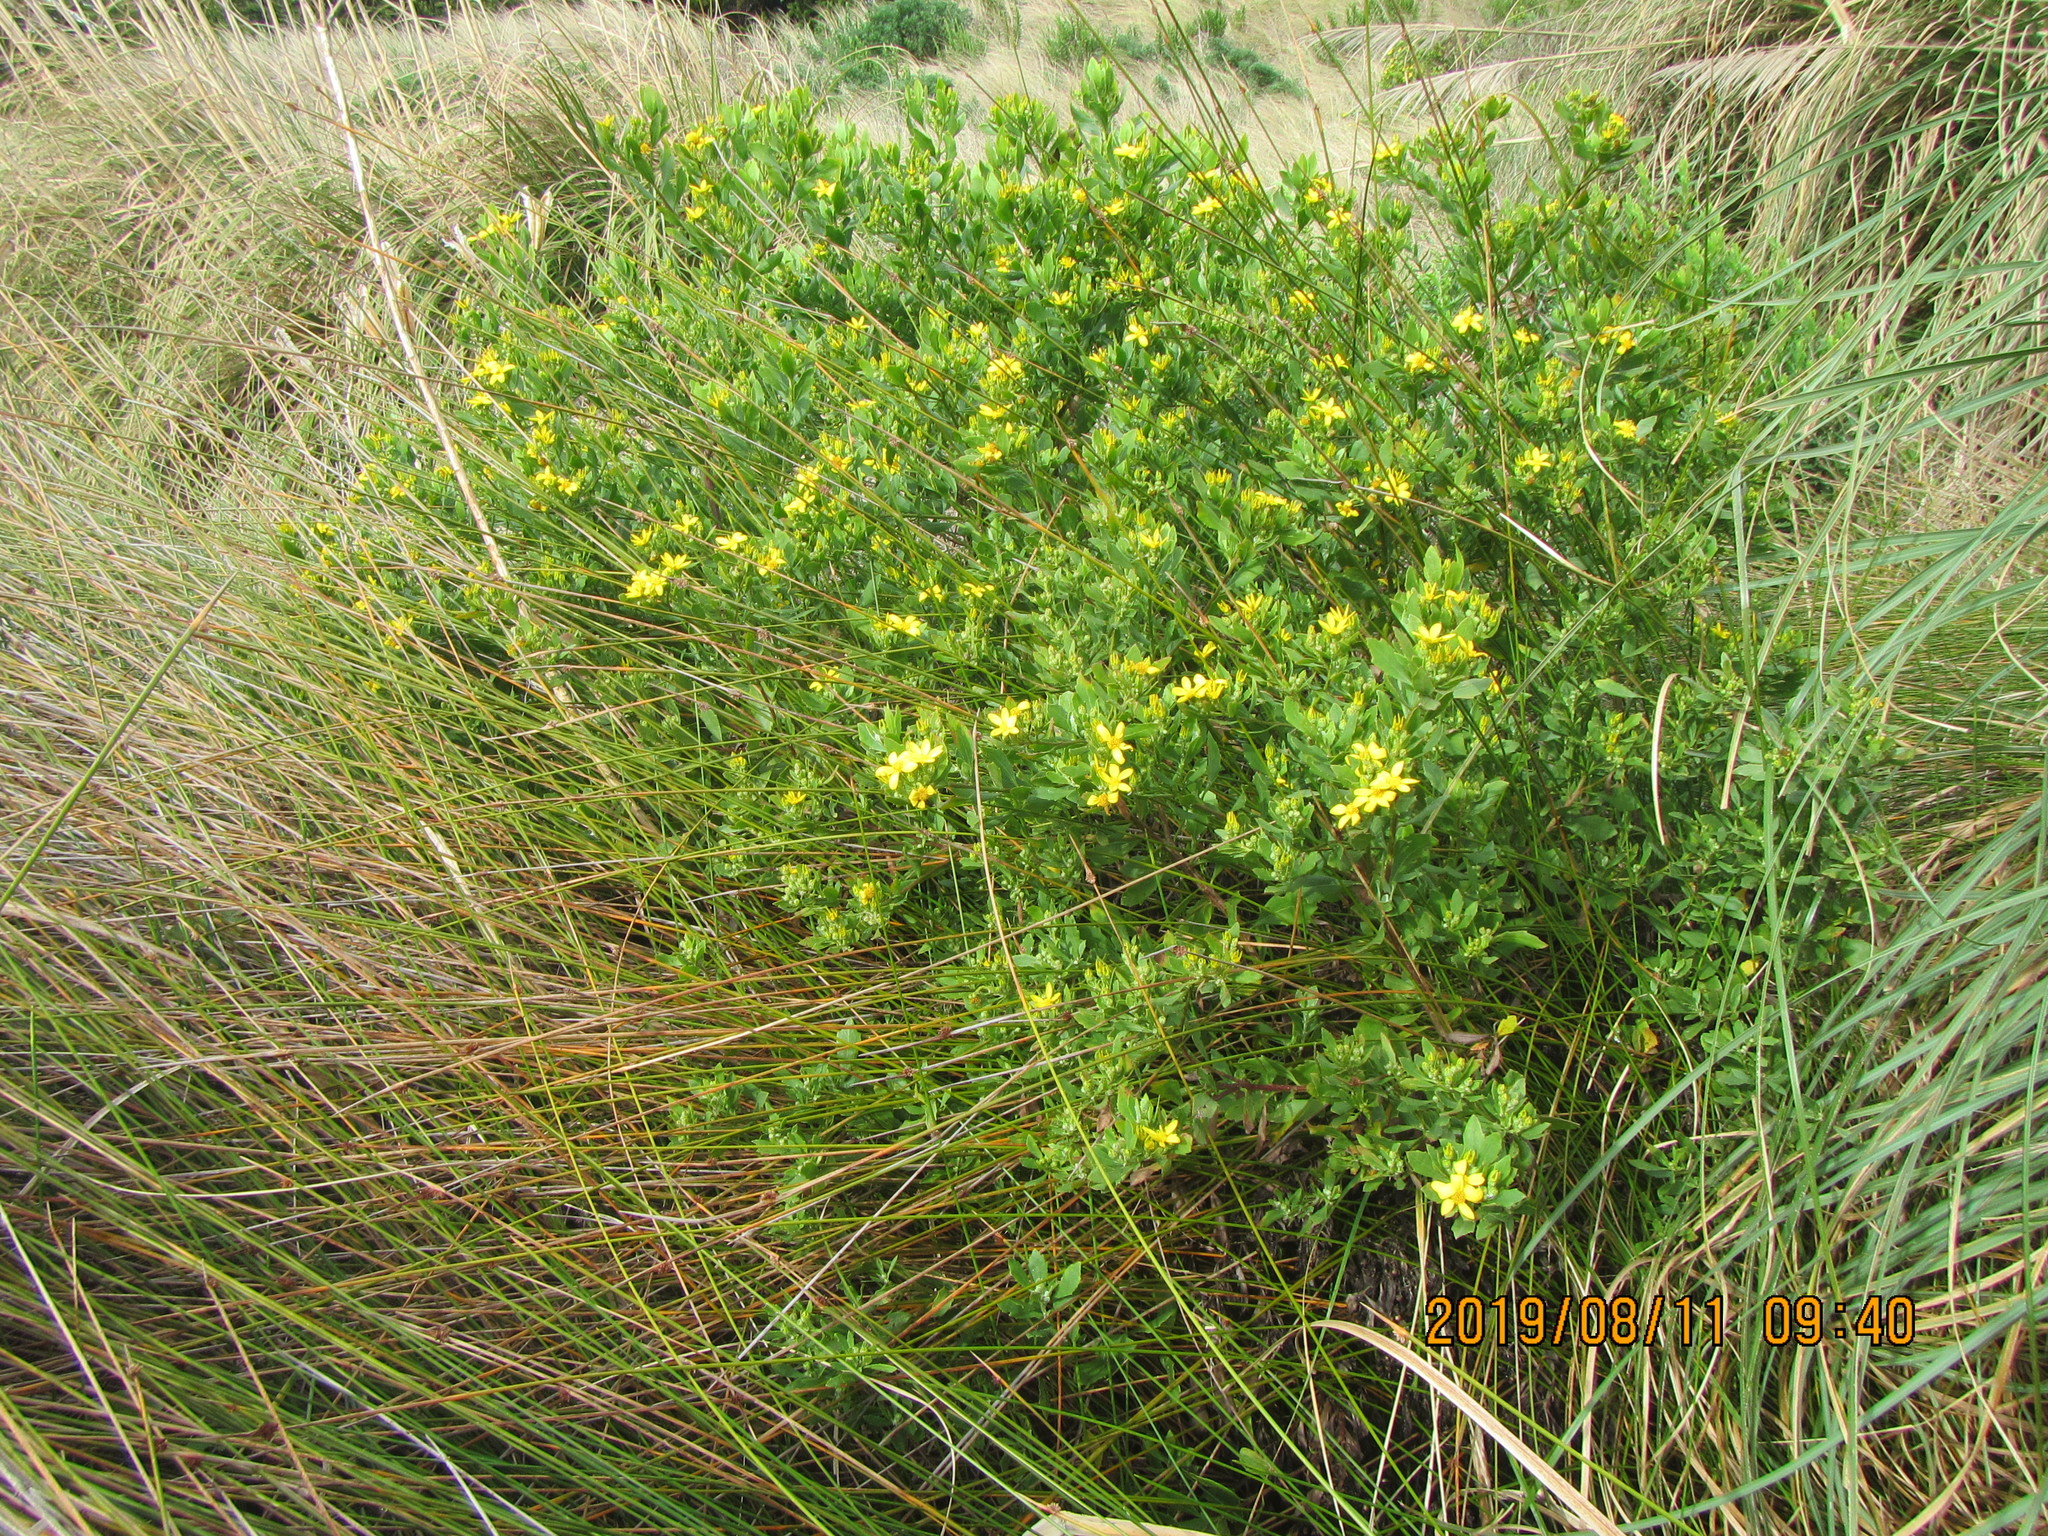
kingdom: Plantae
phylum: Tracheophyta
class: Magnoliopsida
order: Asterales
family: Asteraceae
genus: Osteospermum
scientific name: Osteospermum moniliferum
